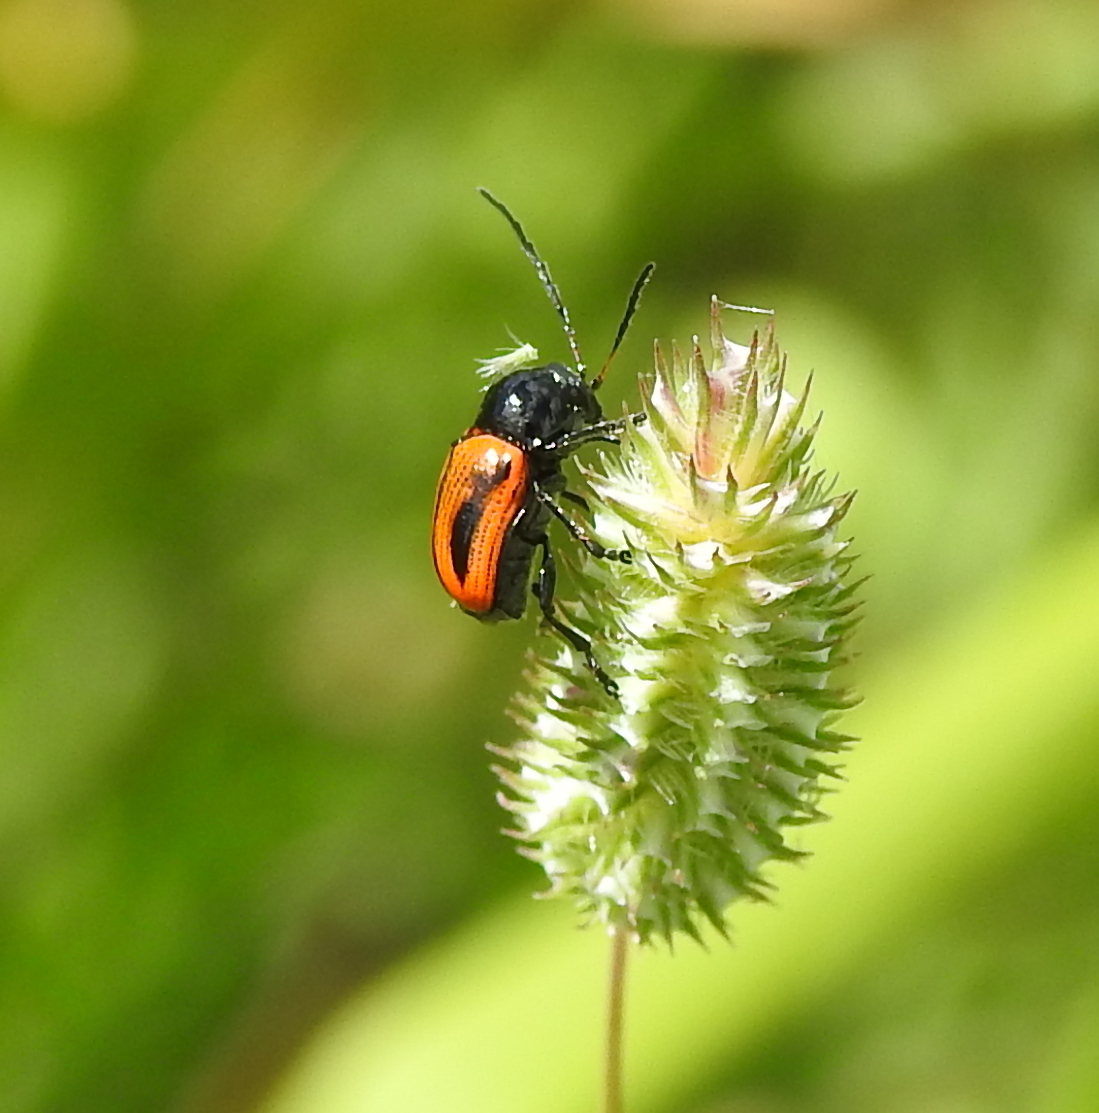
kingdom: Animalia
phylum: Arthropoda
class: Insecta
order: Coleoptera
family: Chrysomelidae
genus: Chiridopsis
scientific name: Chiridopsis bipunctata
